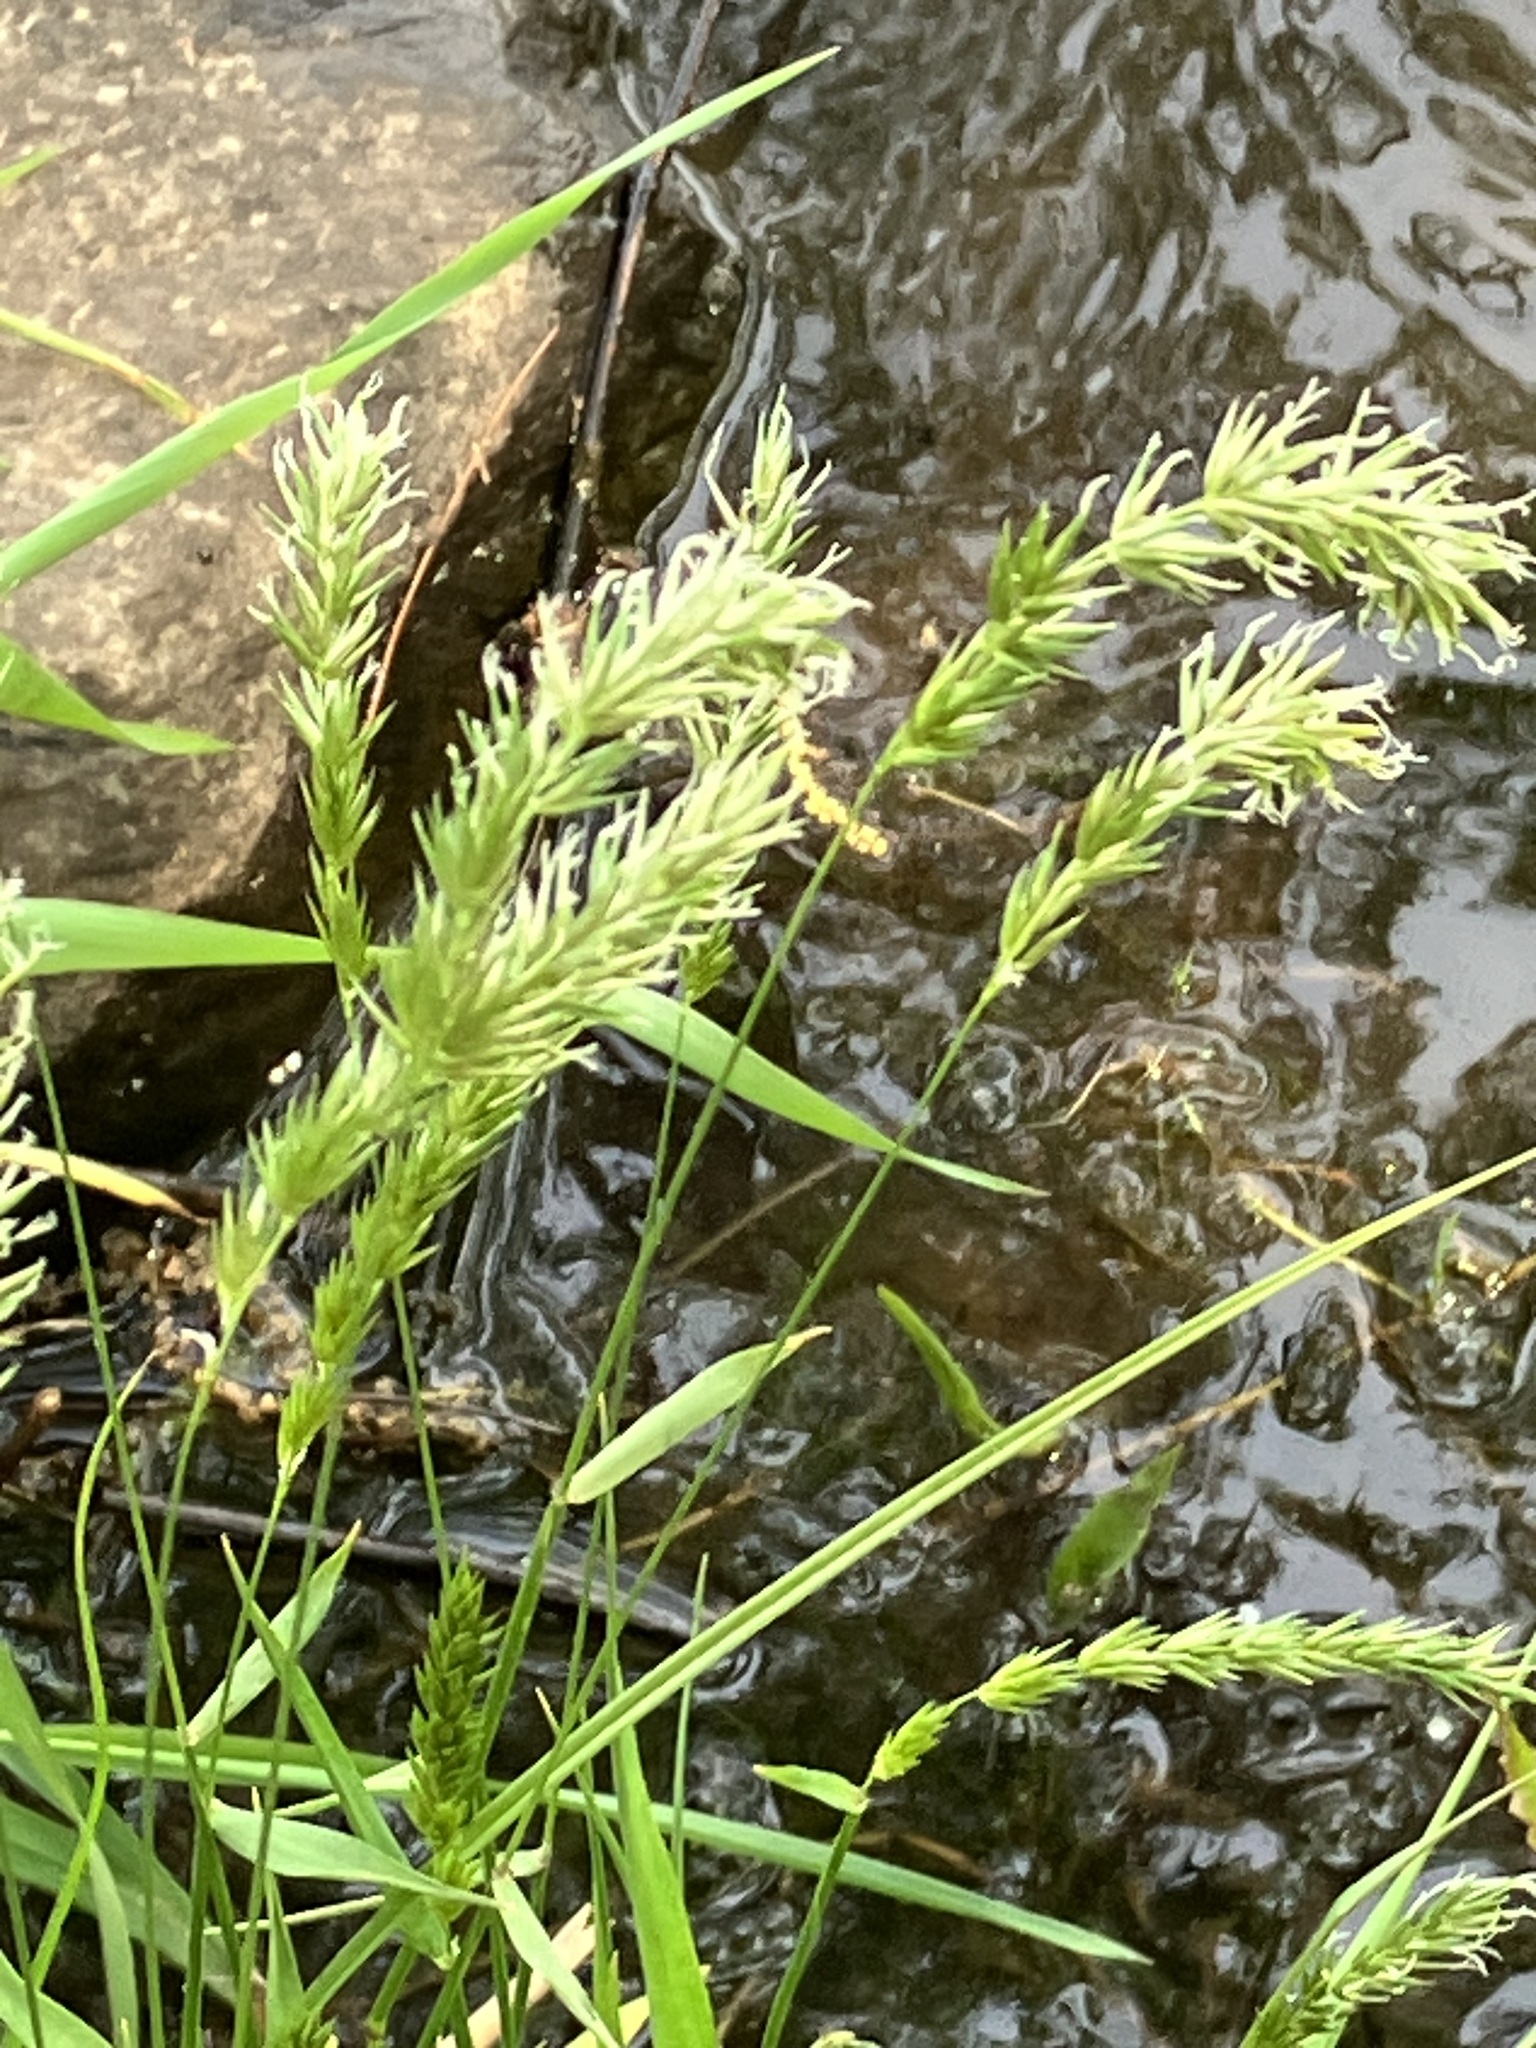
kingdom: Plantae
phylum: Tracheophyta
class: Liliopsida
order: Poales
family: Poaceae
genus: Anthoxanthum
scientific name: Anthoxanthum odoratum
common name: Sweet vernalgrass
